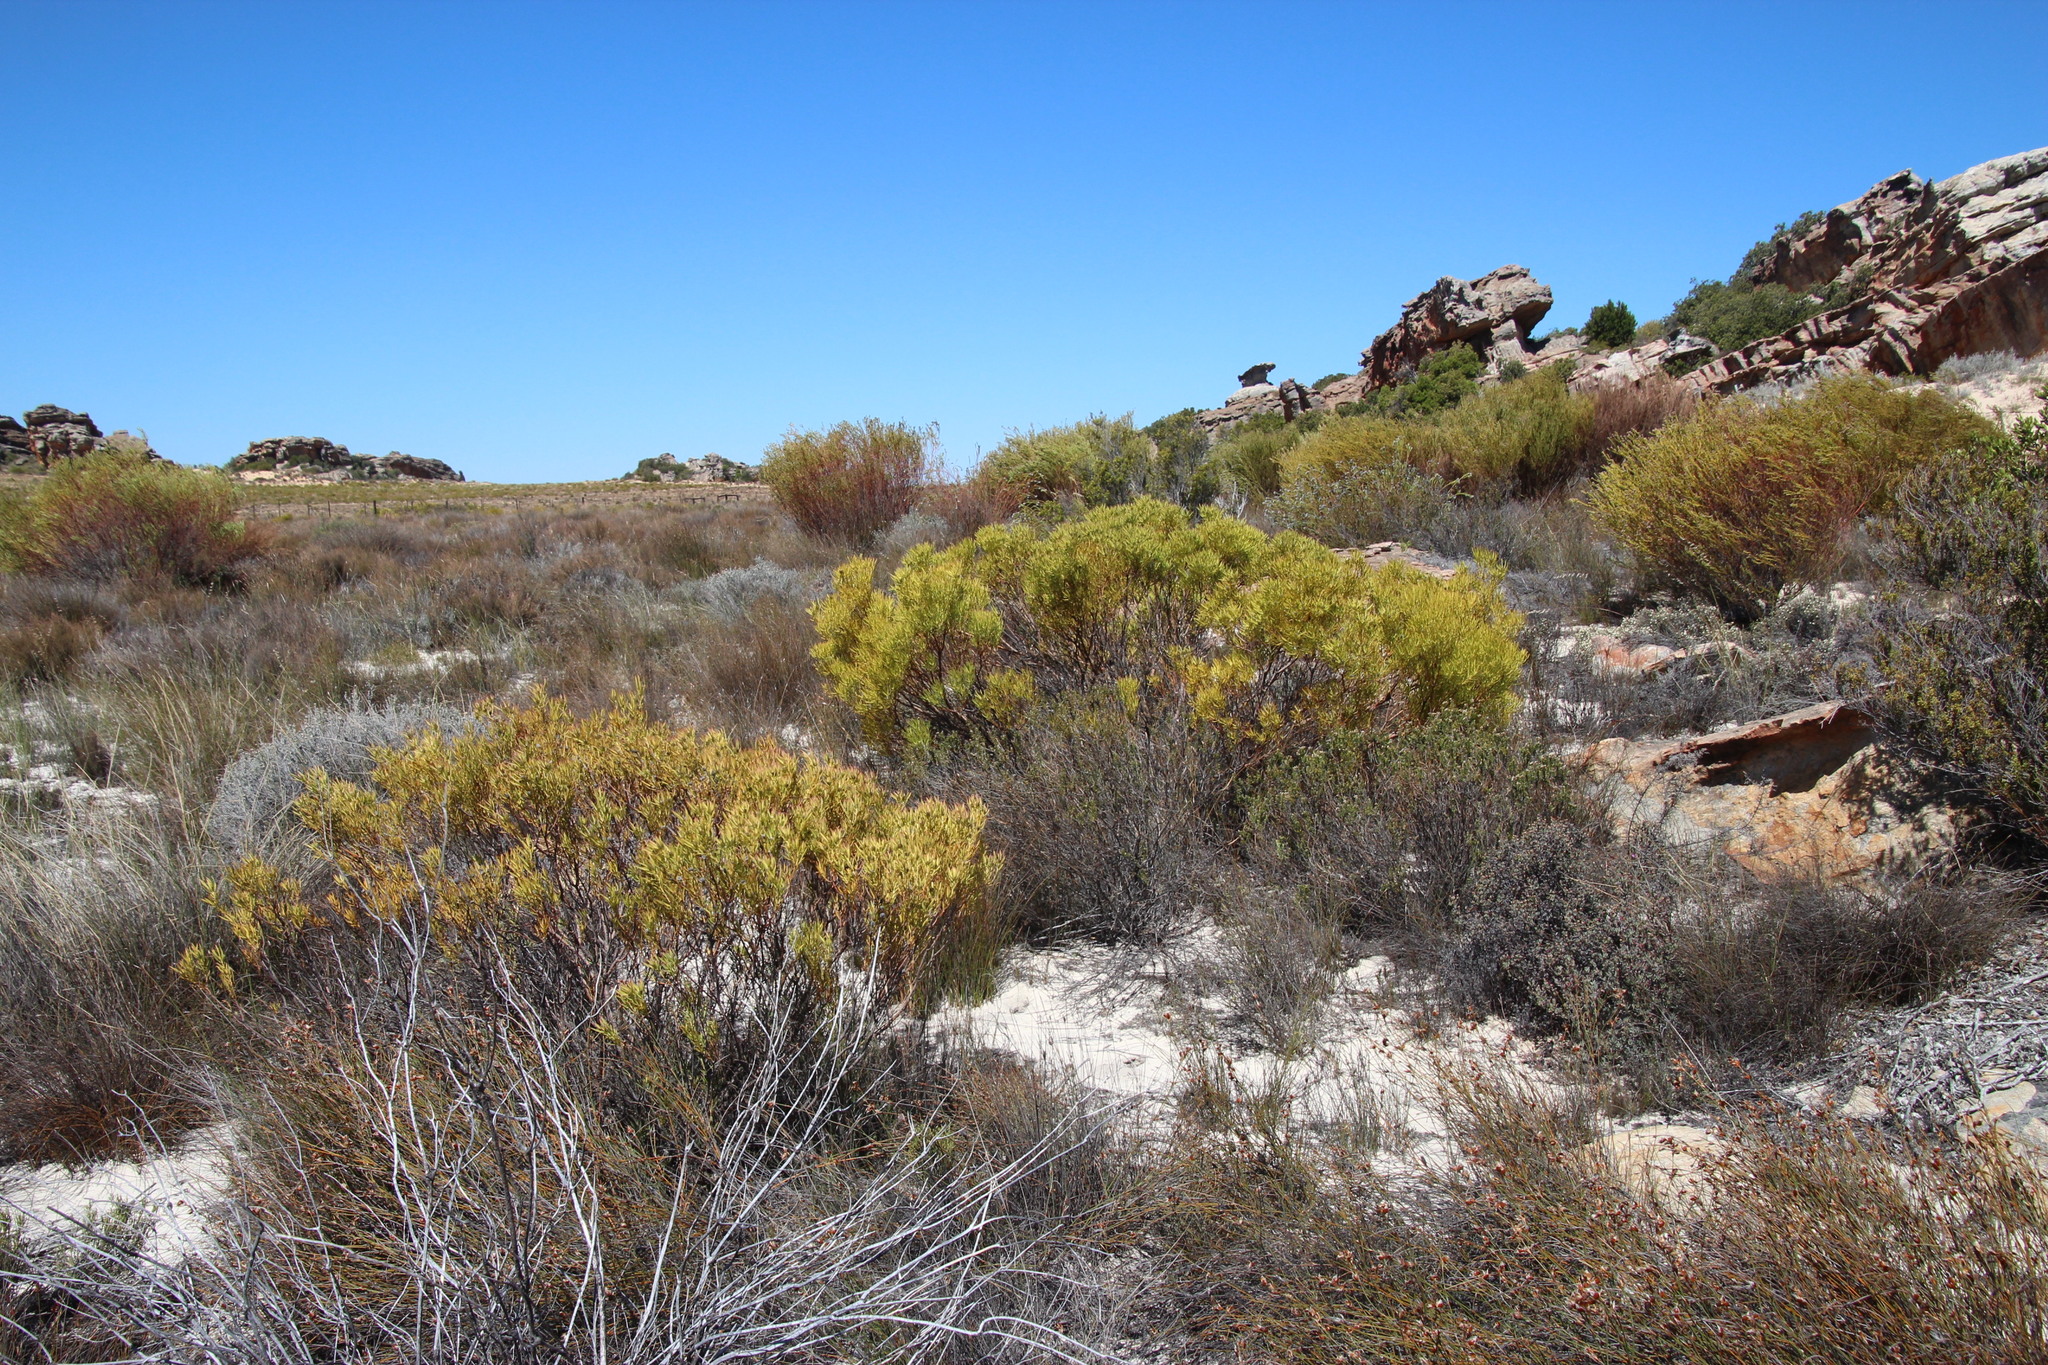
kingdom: Plantae
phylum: Tracheophyta
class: Magnoliopsida
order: Proteales
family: Proteaceae
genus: Leucadendron
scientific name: Leucadendron salignum
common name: Common sunshine conebush
